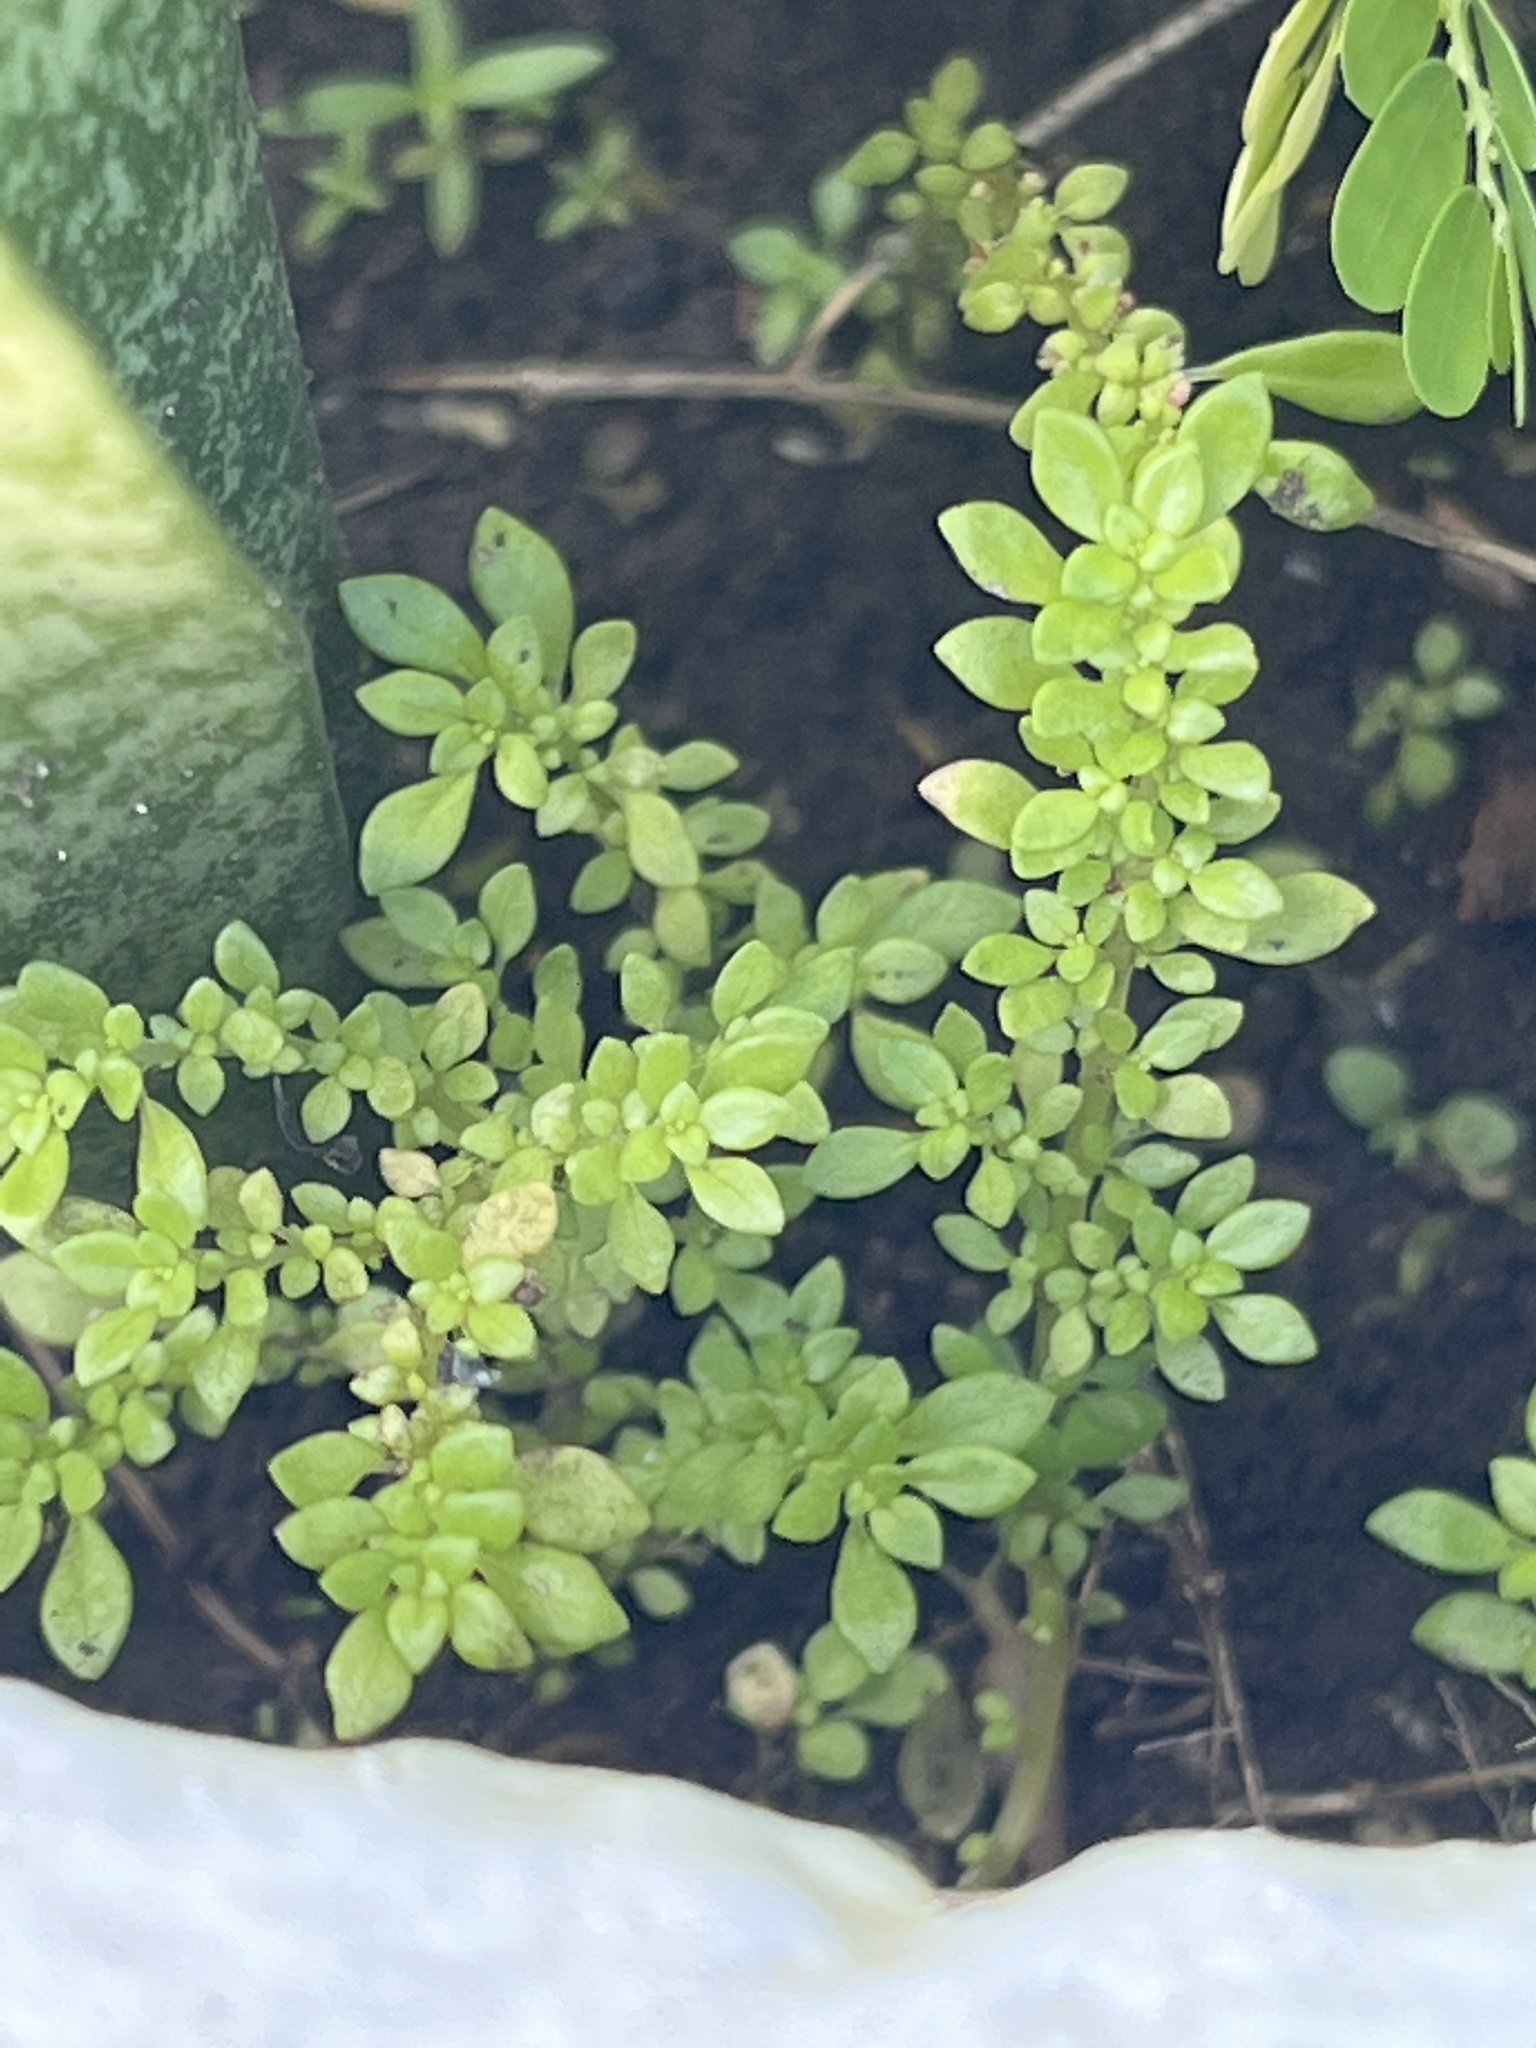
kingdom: Plantae
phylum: Tracheophyta
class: Magnoliopsida
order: Rosales
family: Urticaceae
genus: Pilea
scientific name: Pilea microphylla
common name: Artillery-plant
